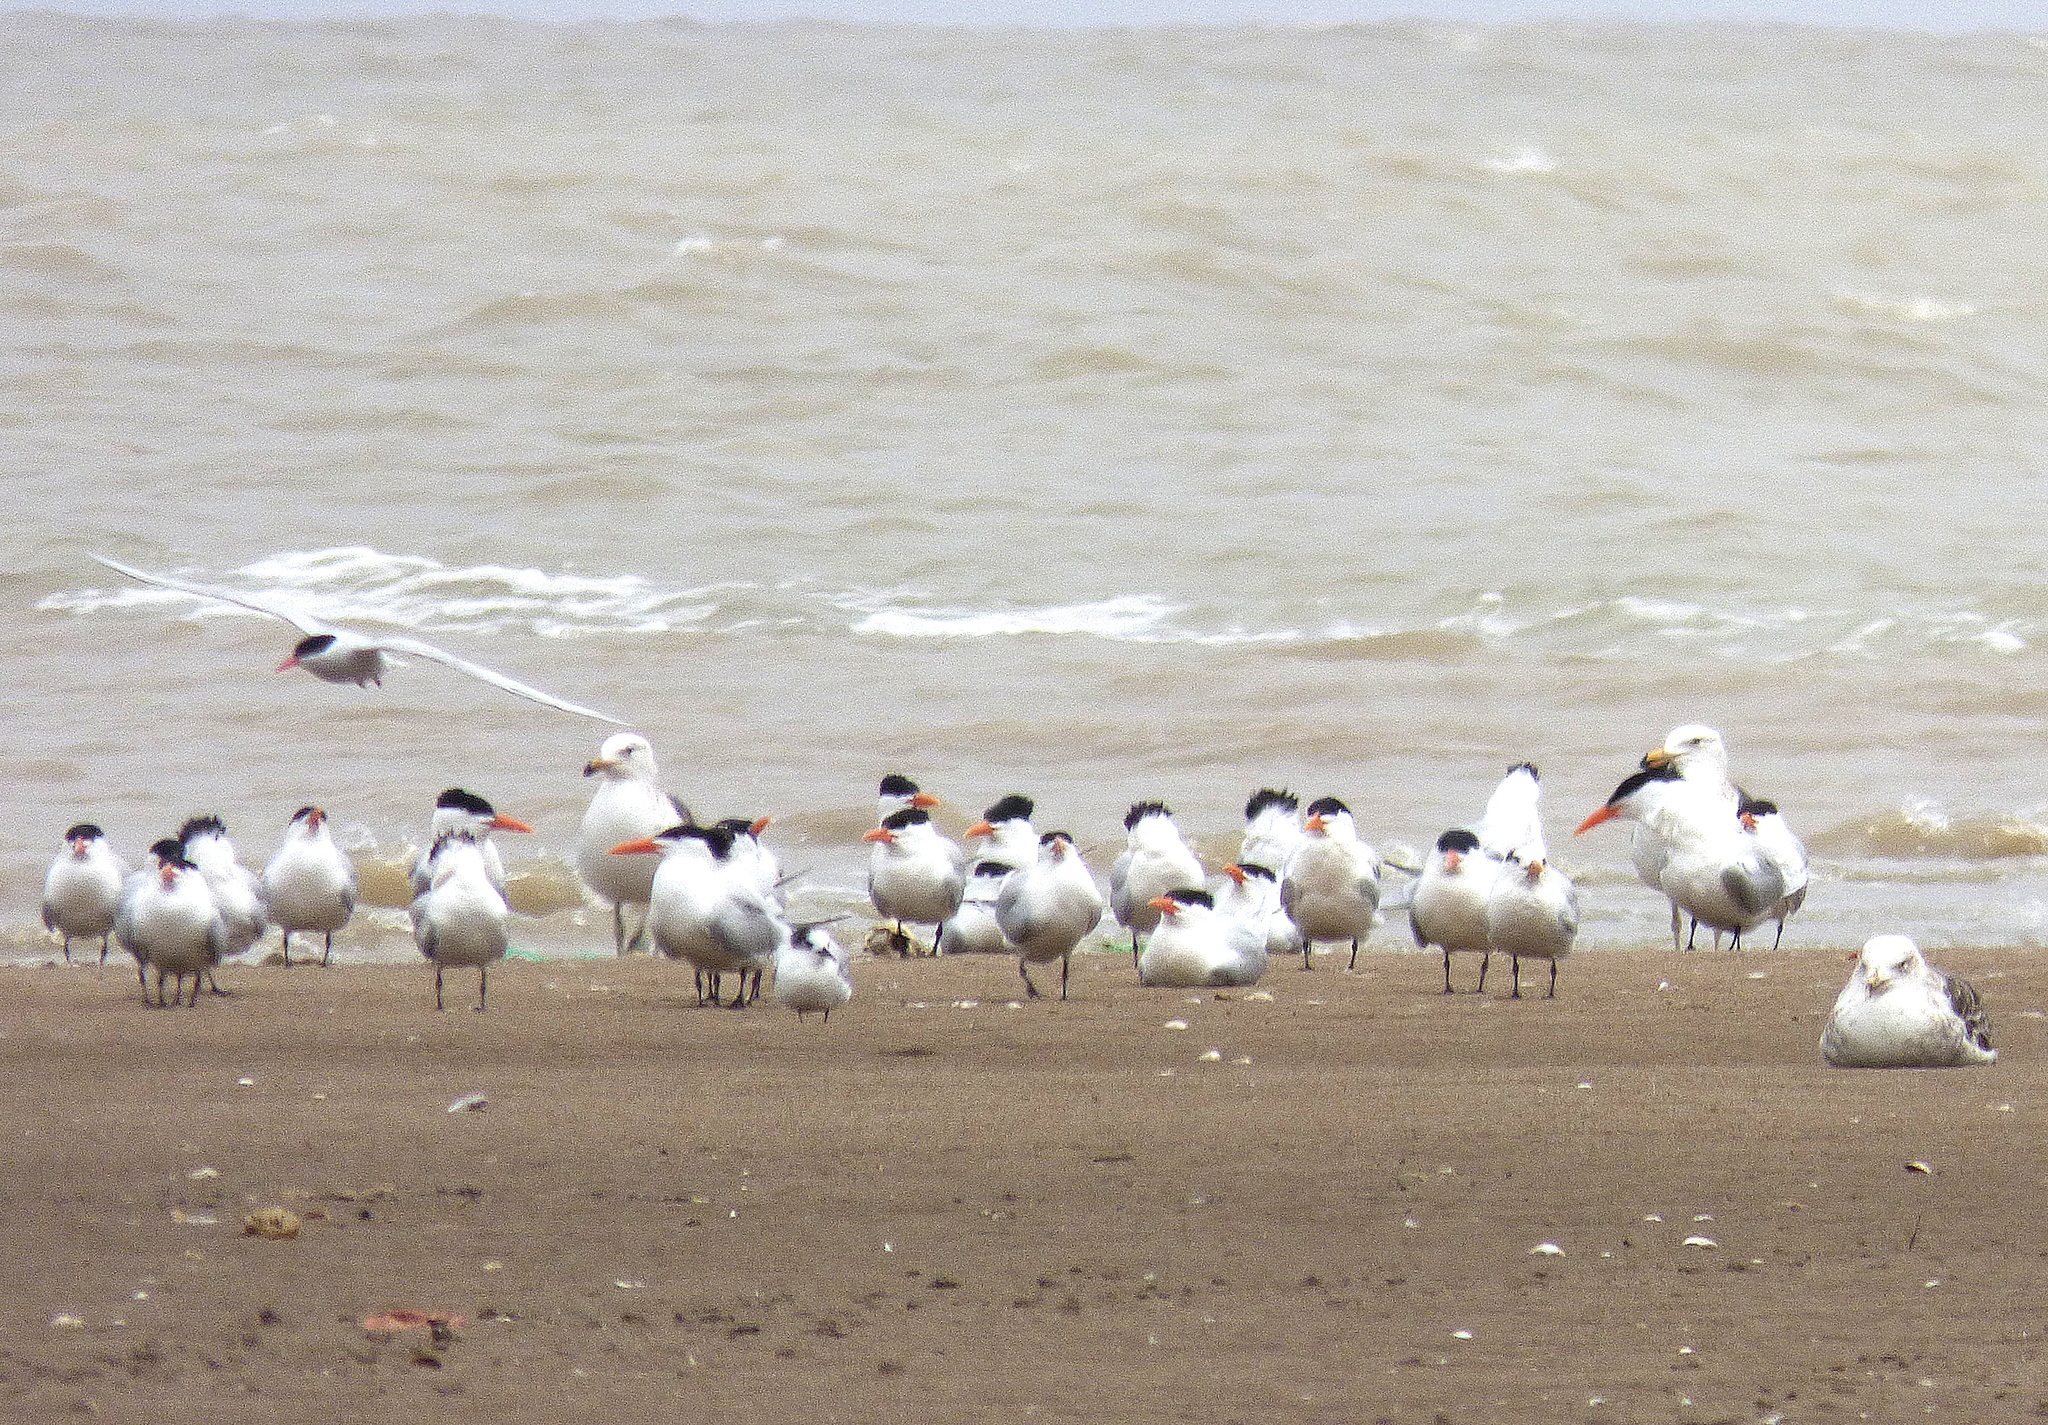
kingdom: Animalia
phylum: Chordata
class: Aves
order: Charadriiformes
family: Laridae
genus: Thalasseus
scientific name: Thalasseus maximus
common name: Royal tern
